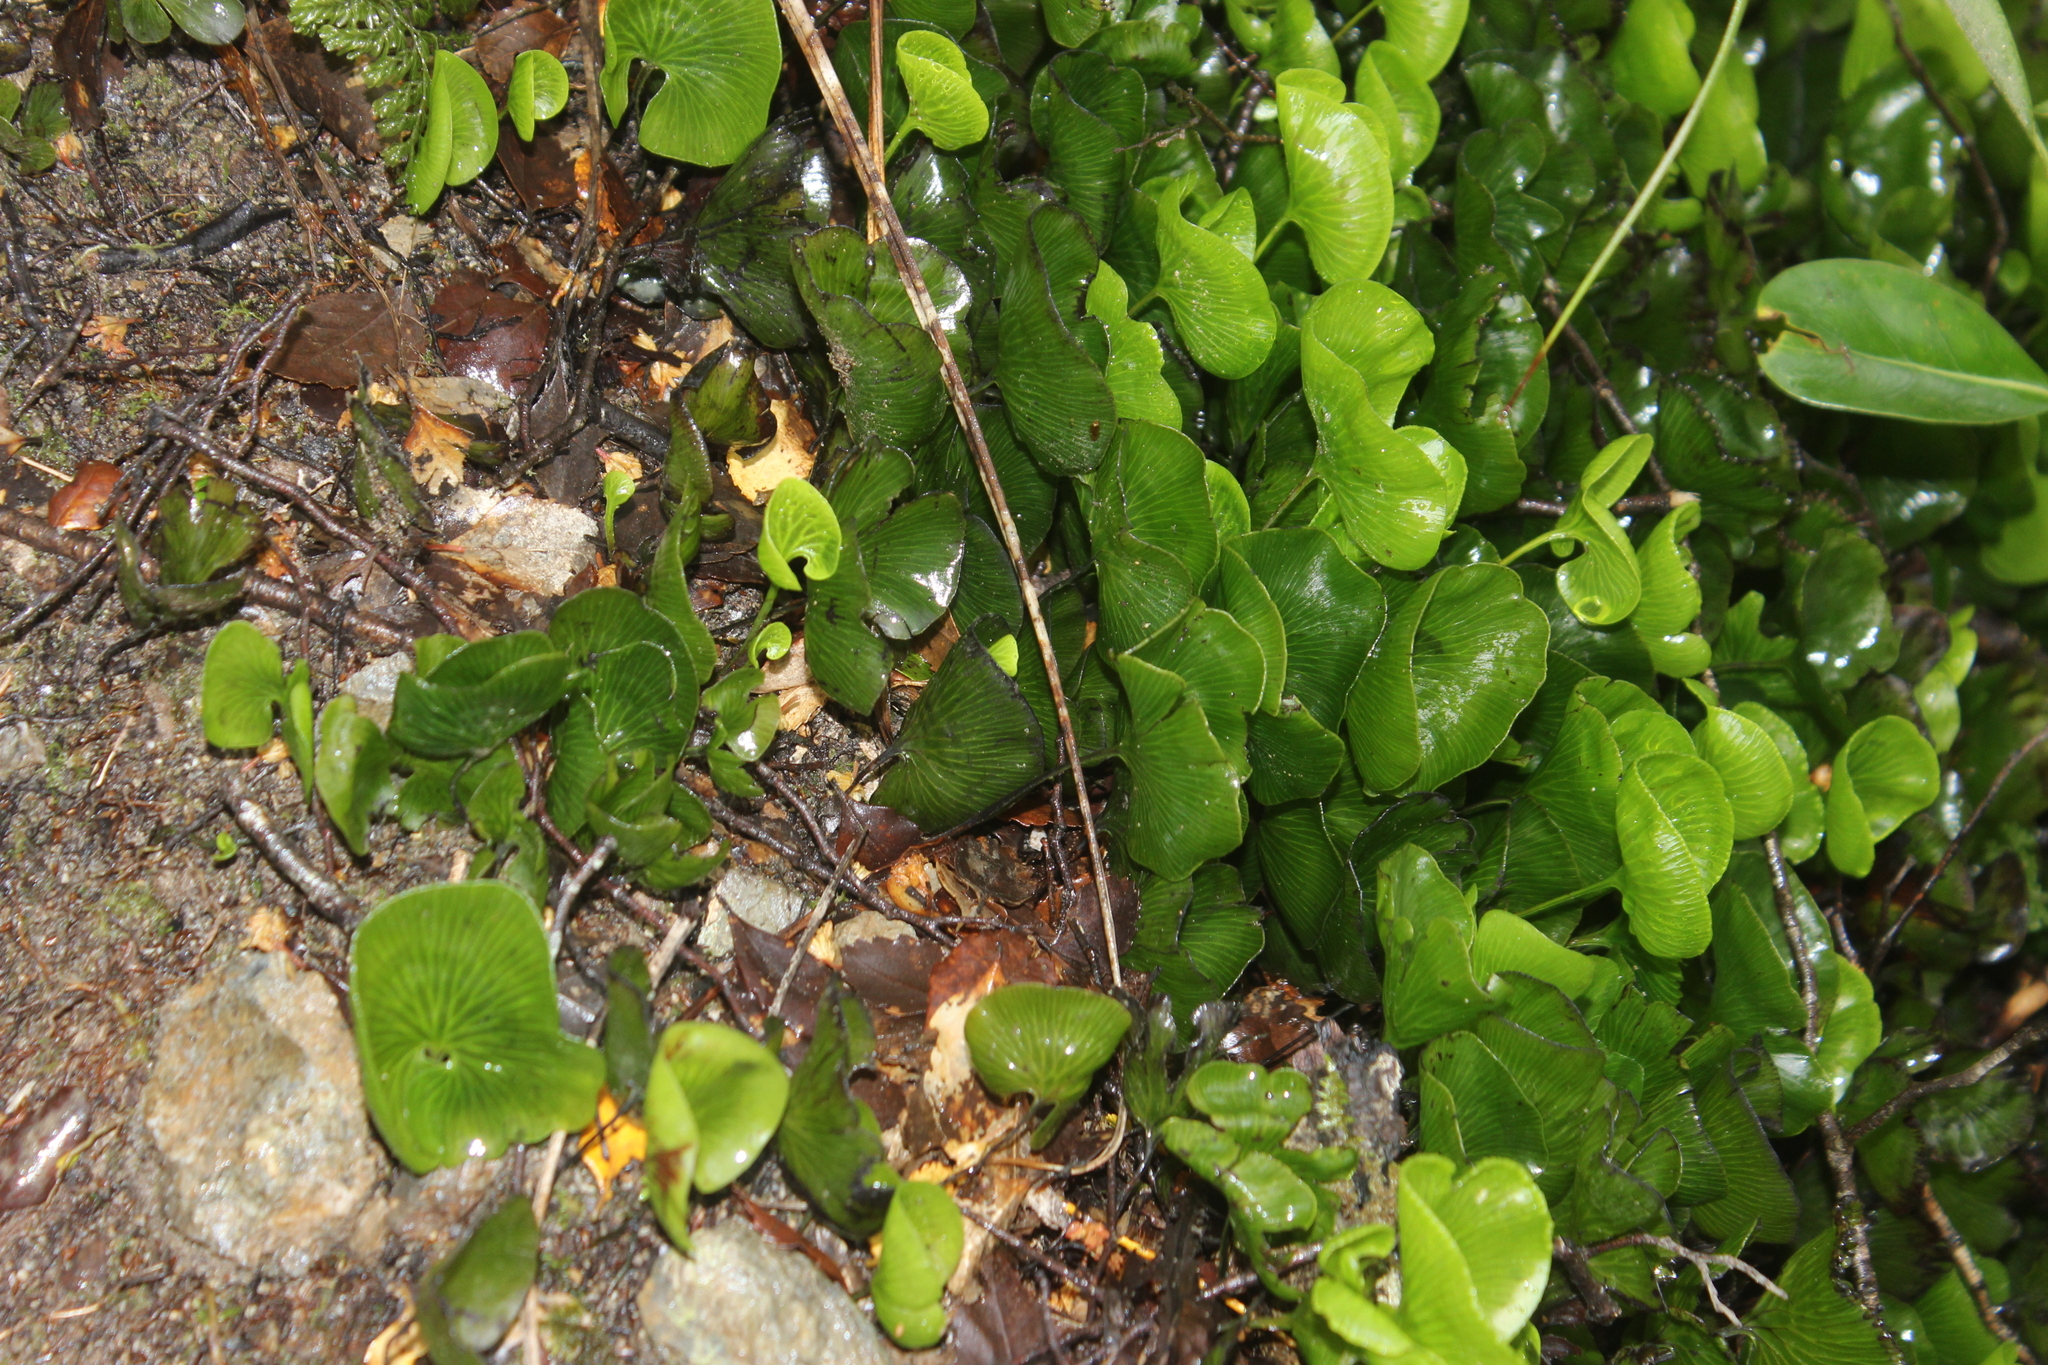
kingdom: Plantae
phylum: Tracheophyta
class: Polypodiopsida
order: Hymenophyllales
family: Hymenophyllaceae
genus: Hymenophyllum
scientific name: Hymenophyllum nephrophyllum
